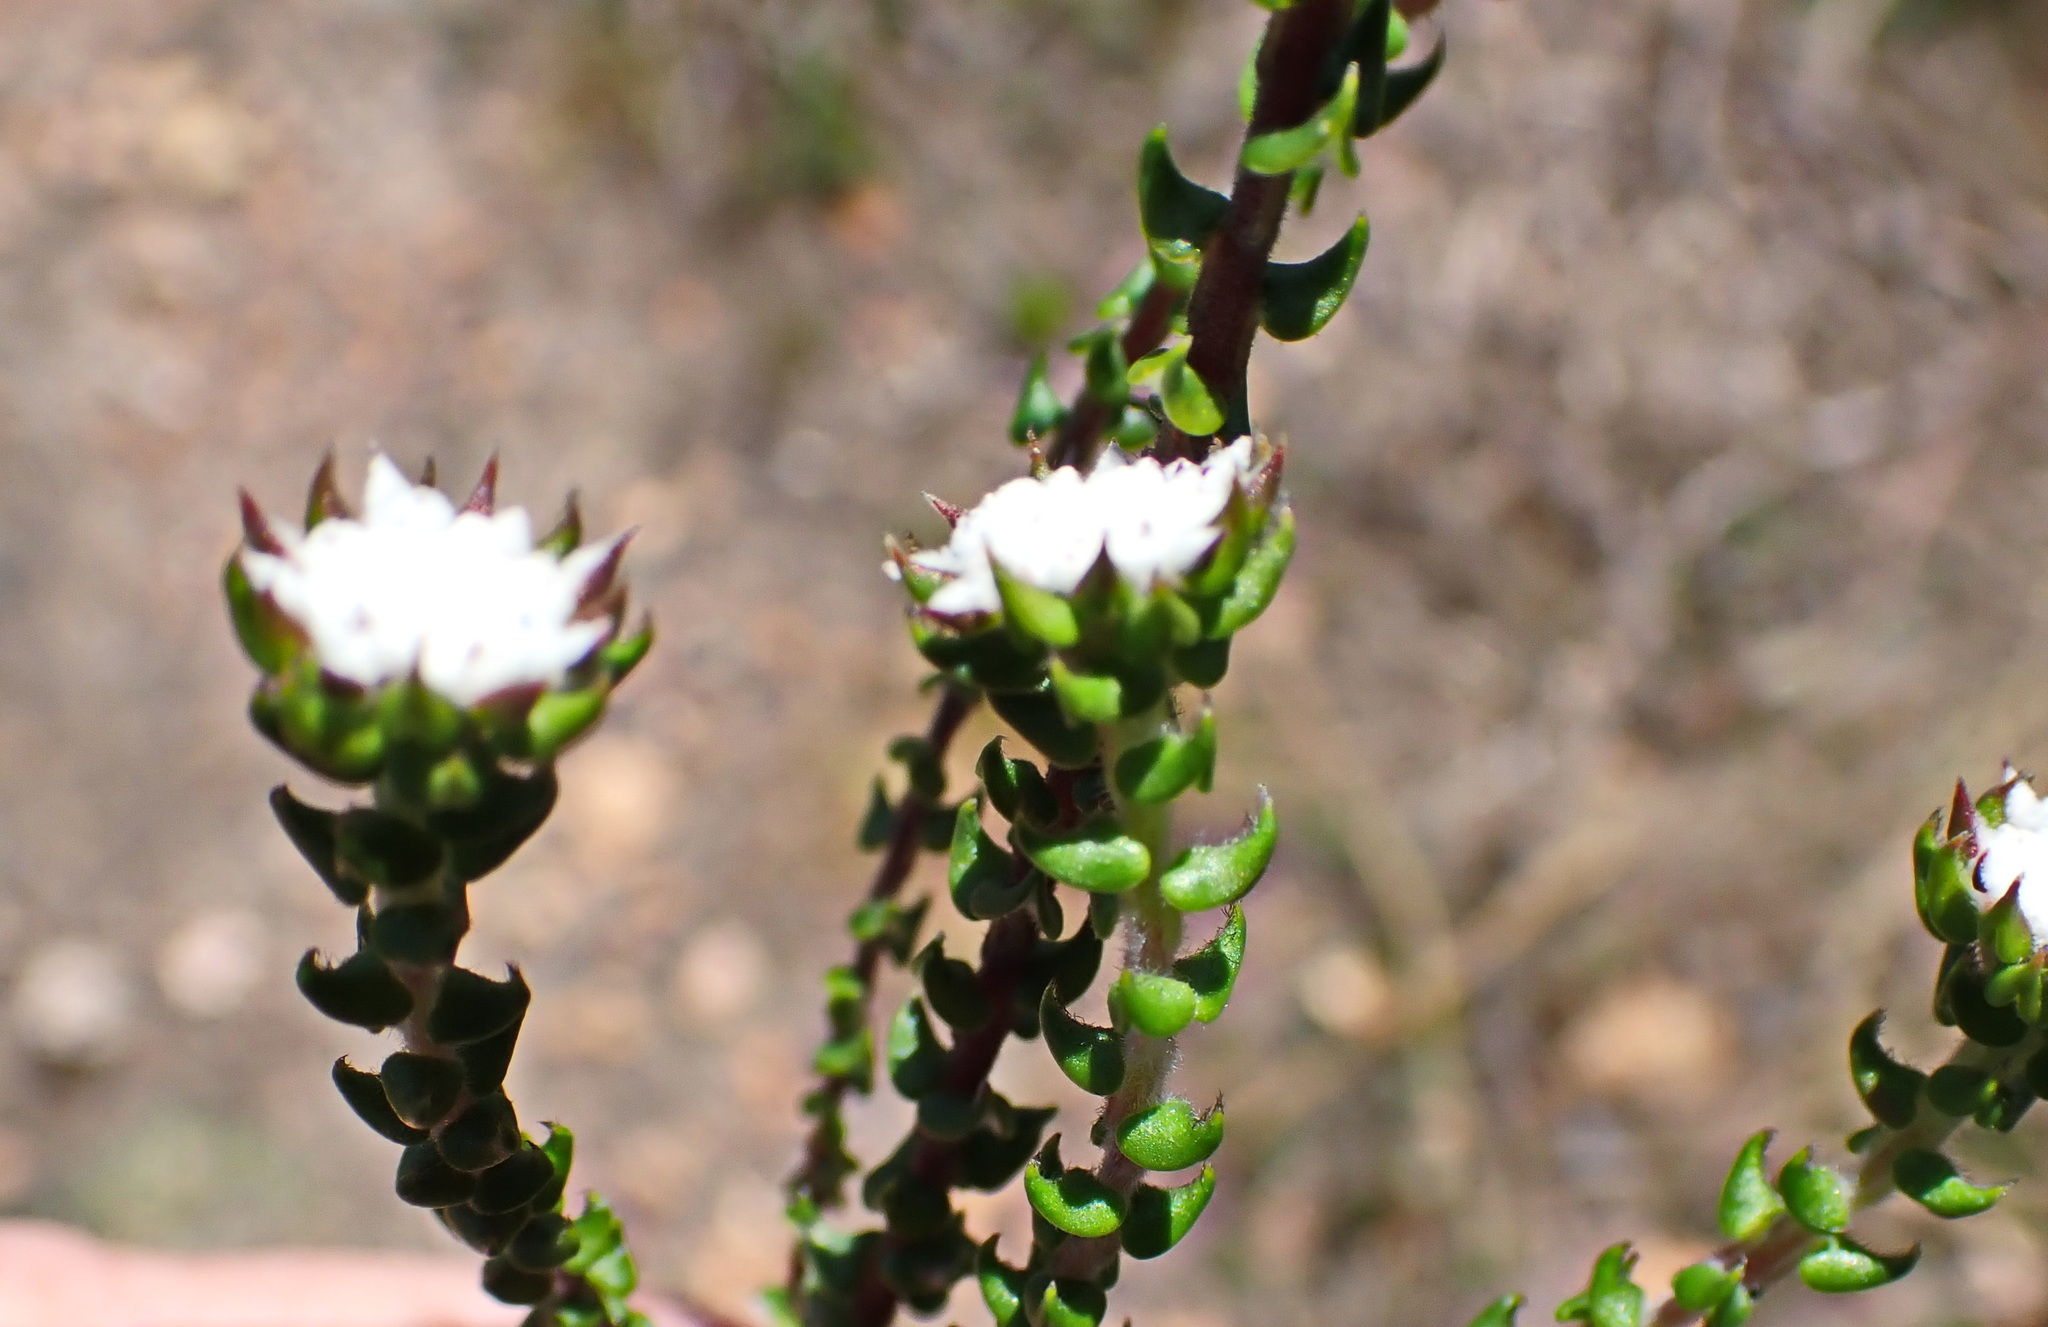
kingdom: Plantae
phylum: Tracheophyta
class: Magnoliopsida
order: Rosales
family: Rhamnaceae
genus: Phylica
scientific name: Phylica debilis
